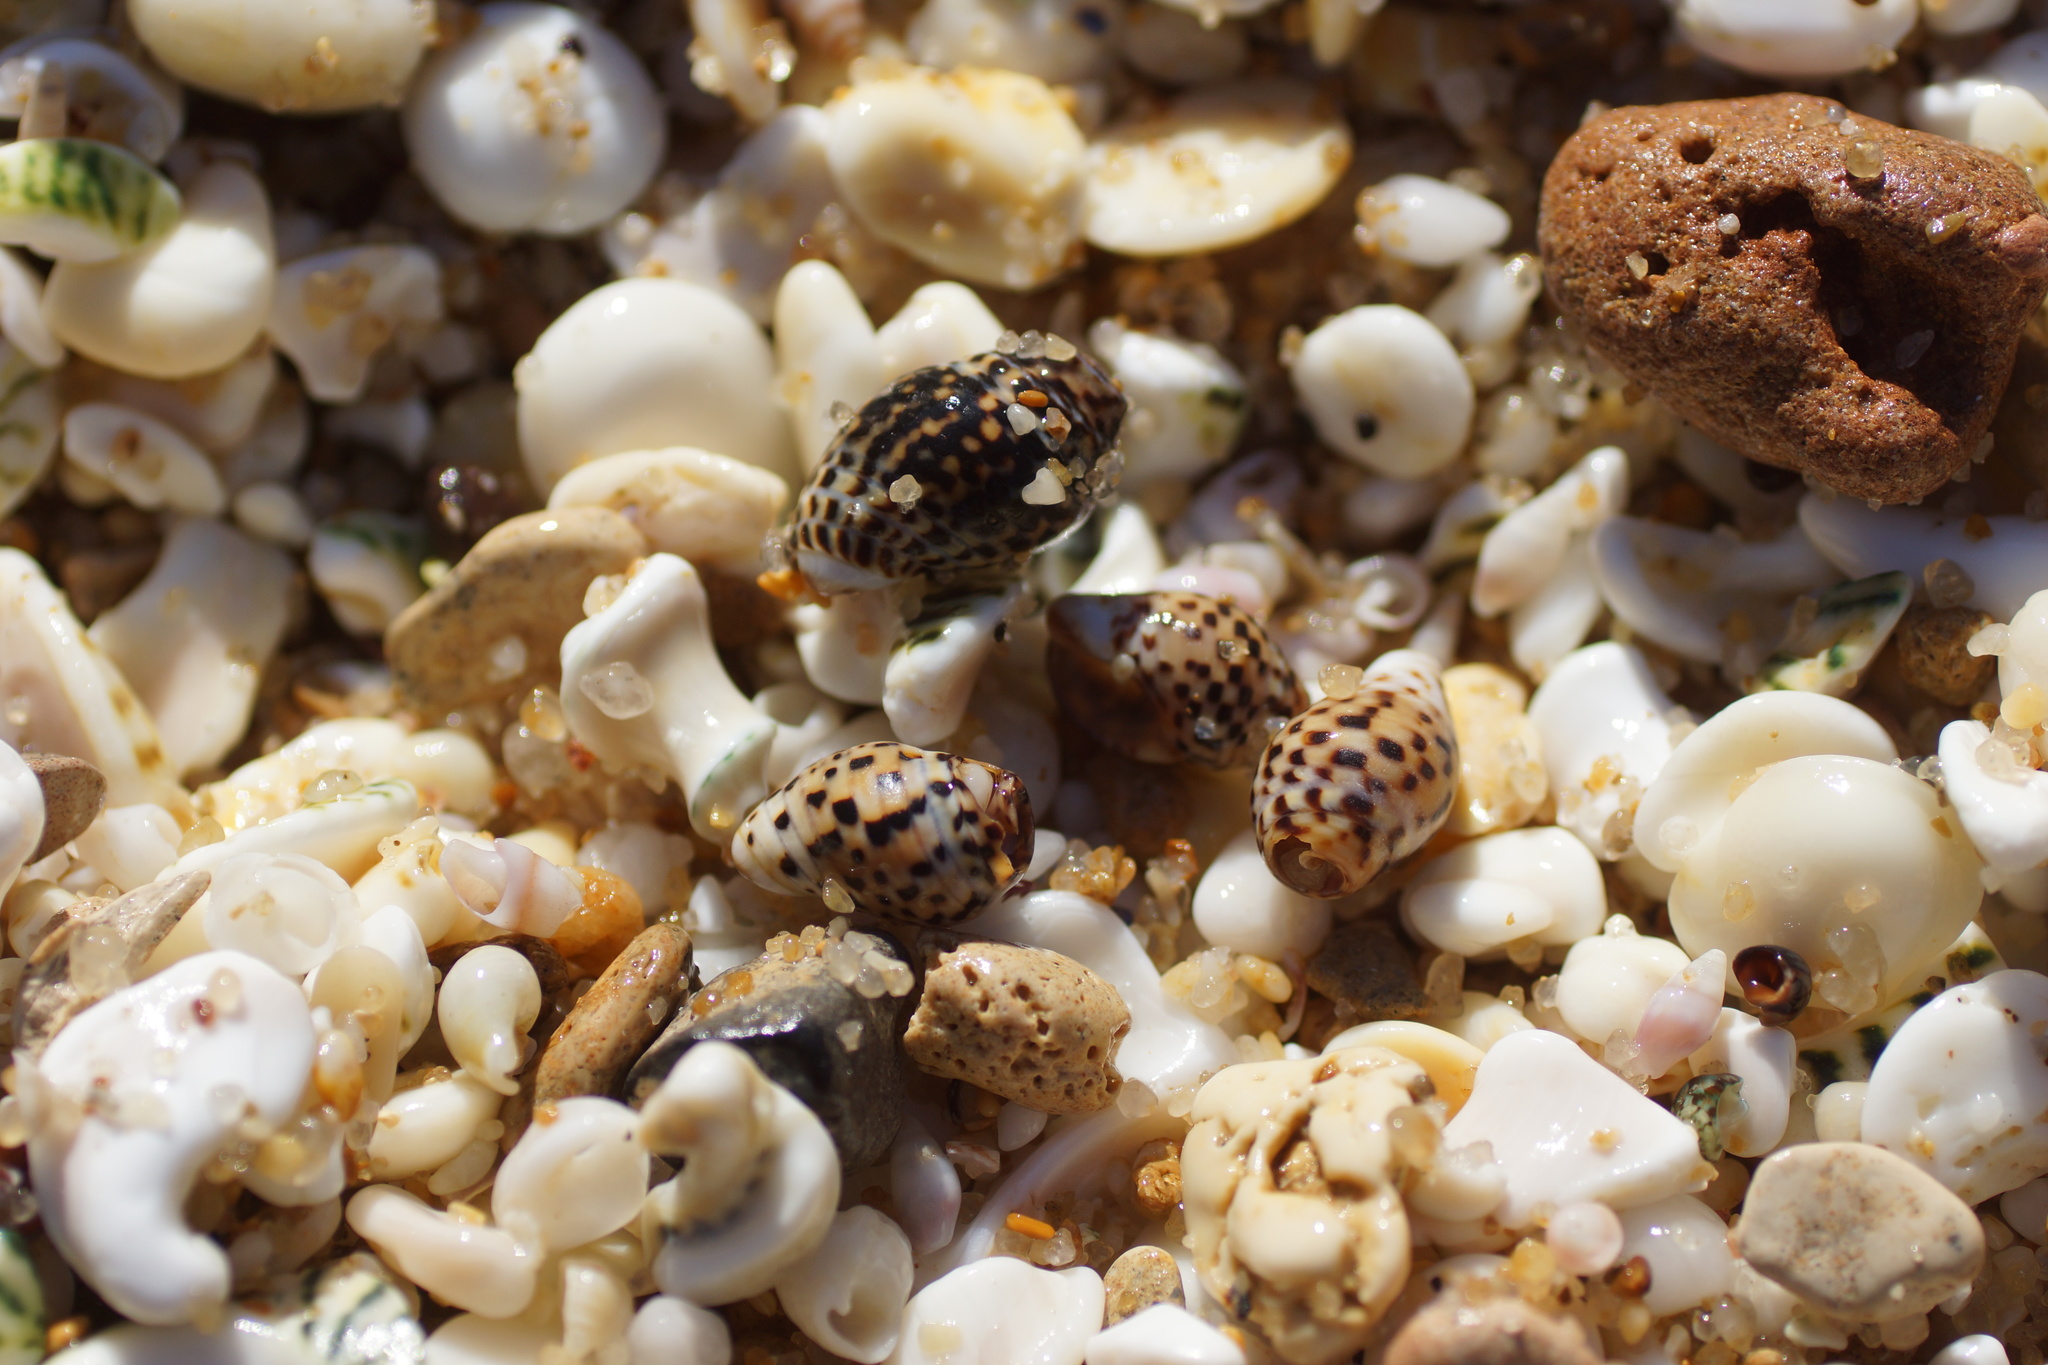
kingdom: Animalia
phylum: Mollusca
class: Gastropoda
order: Neogastropoda
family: Cominellidae
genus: Cominella
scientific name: Cominella lineolata
